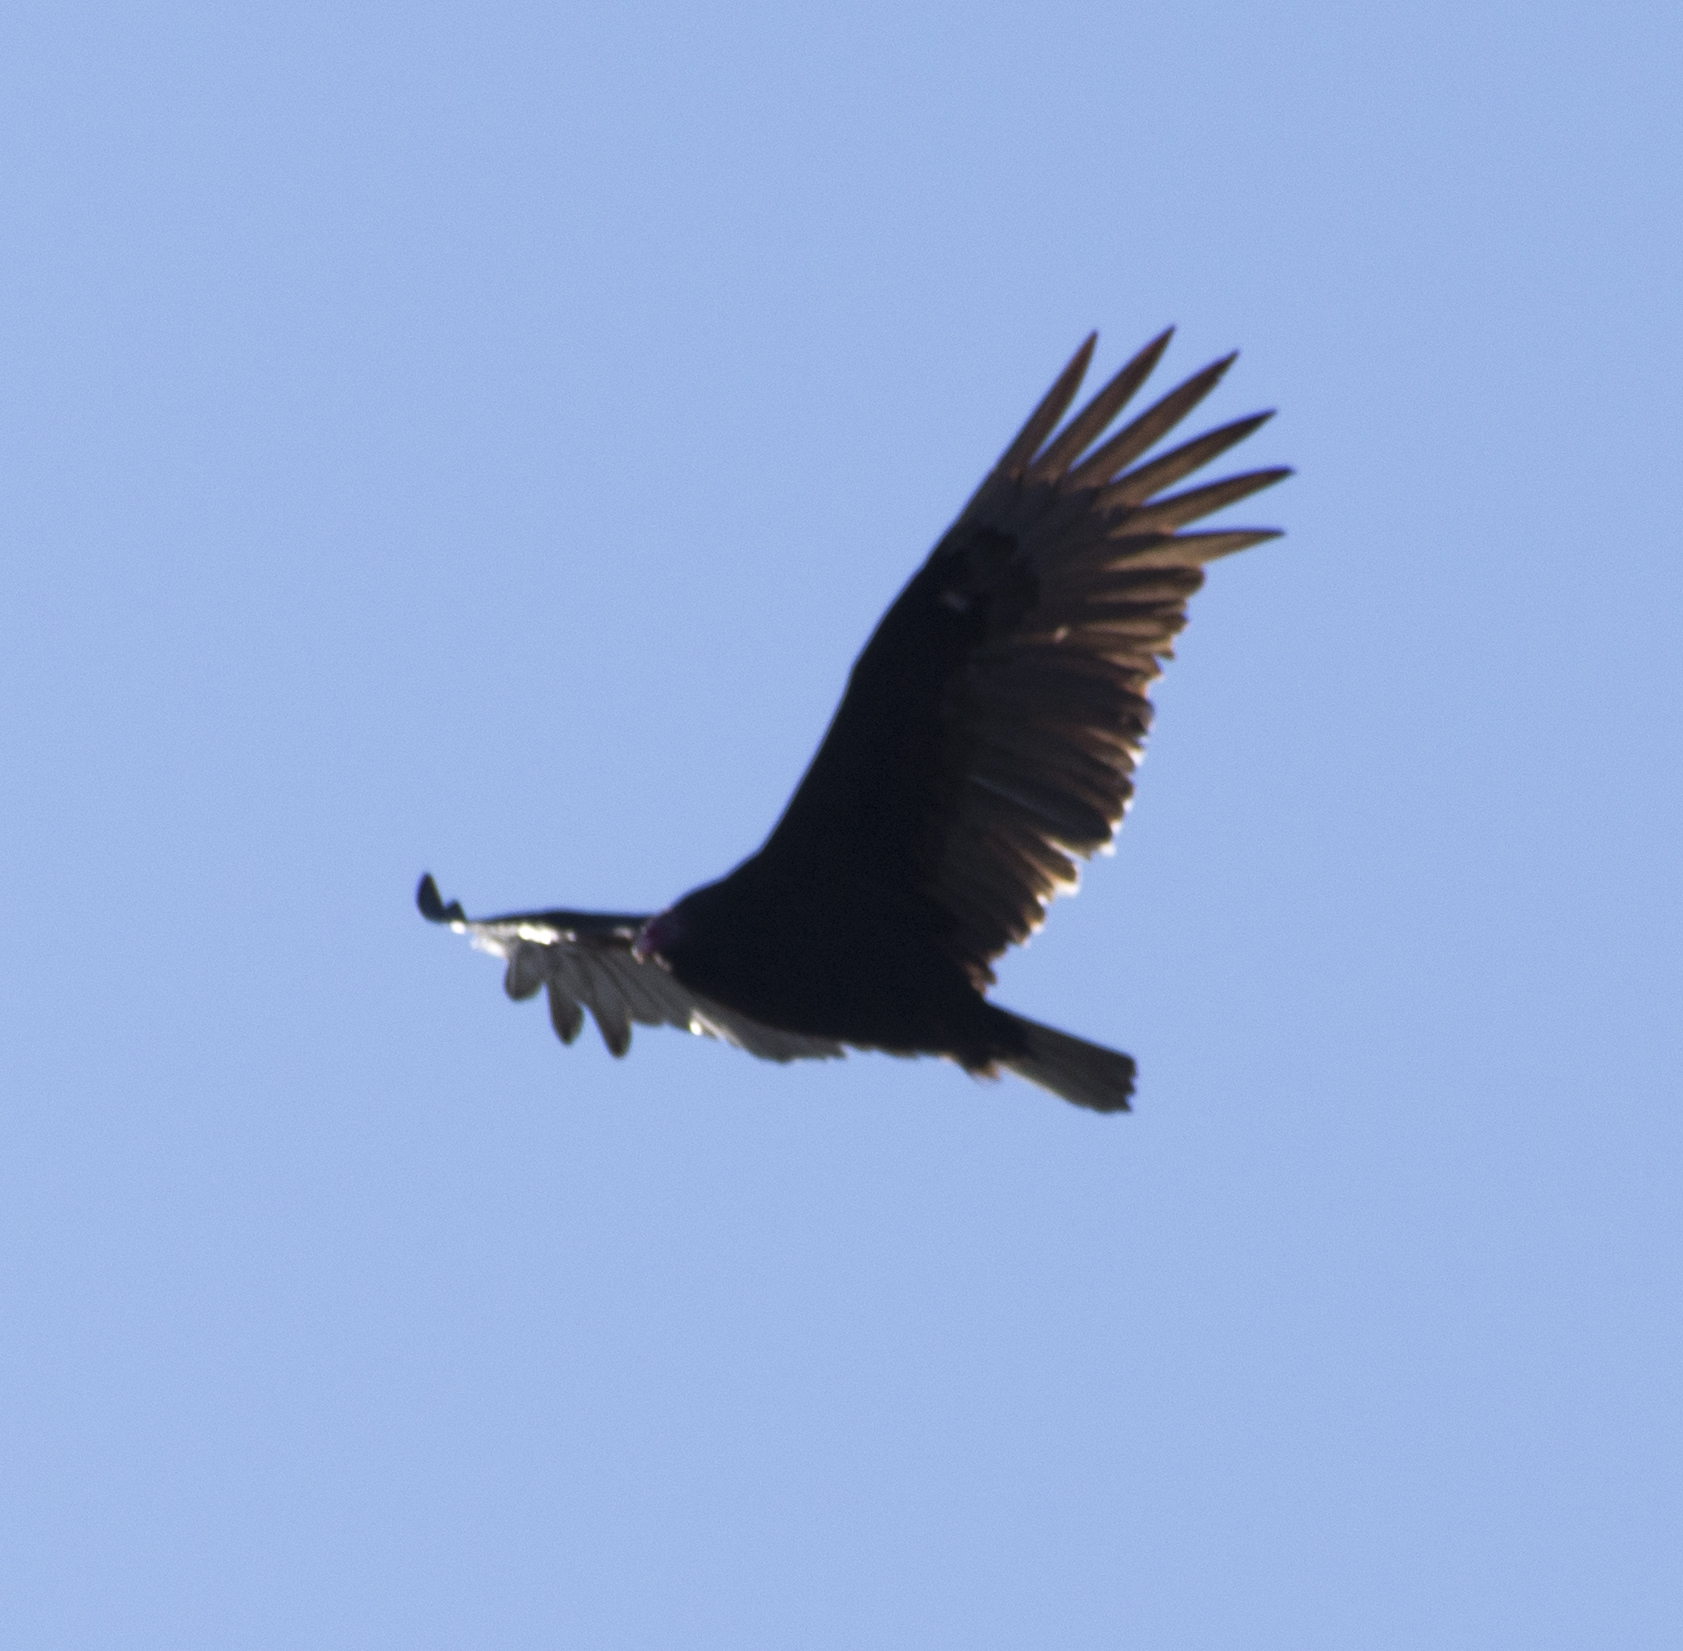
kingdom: Animalia
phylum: Chordata
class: Aves
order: Accipitriformes
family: Cathartidae
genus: Cathartes
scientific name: Cathartes aura
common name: Turkey vulture
